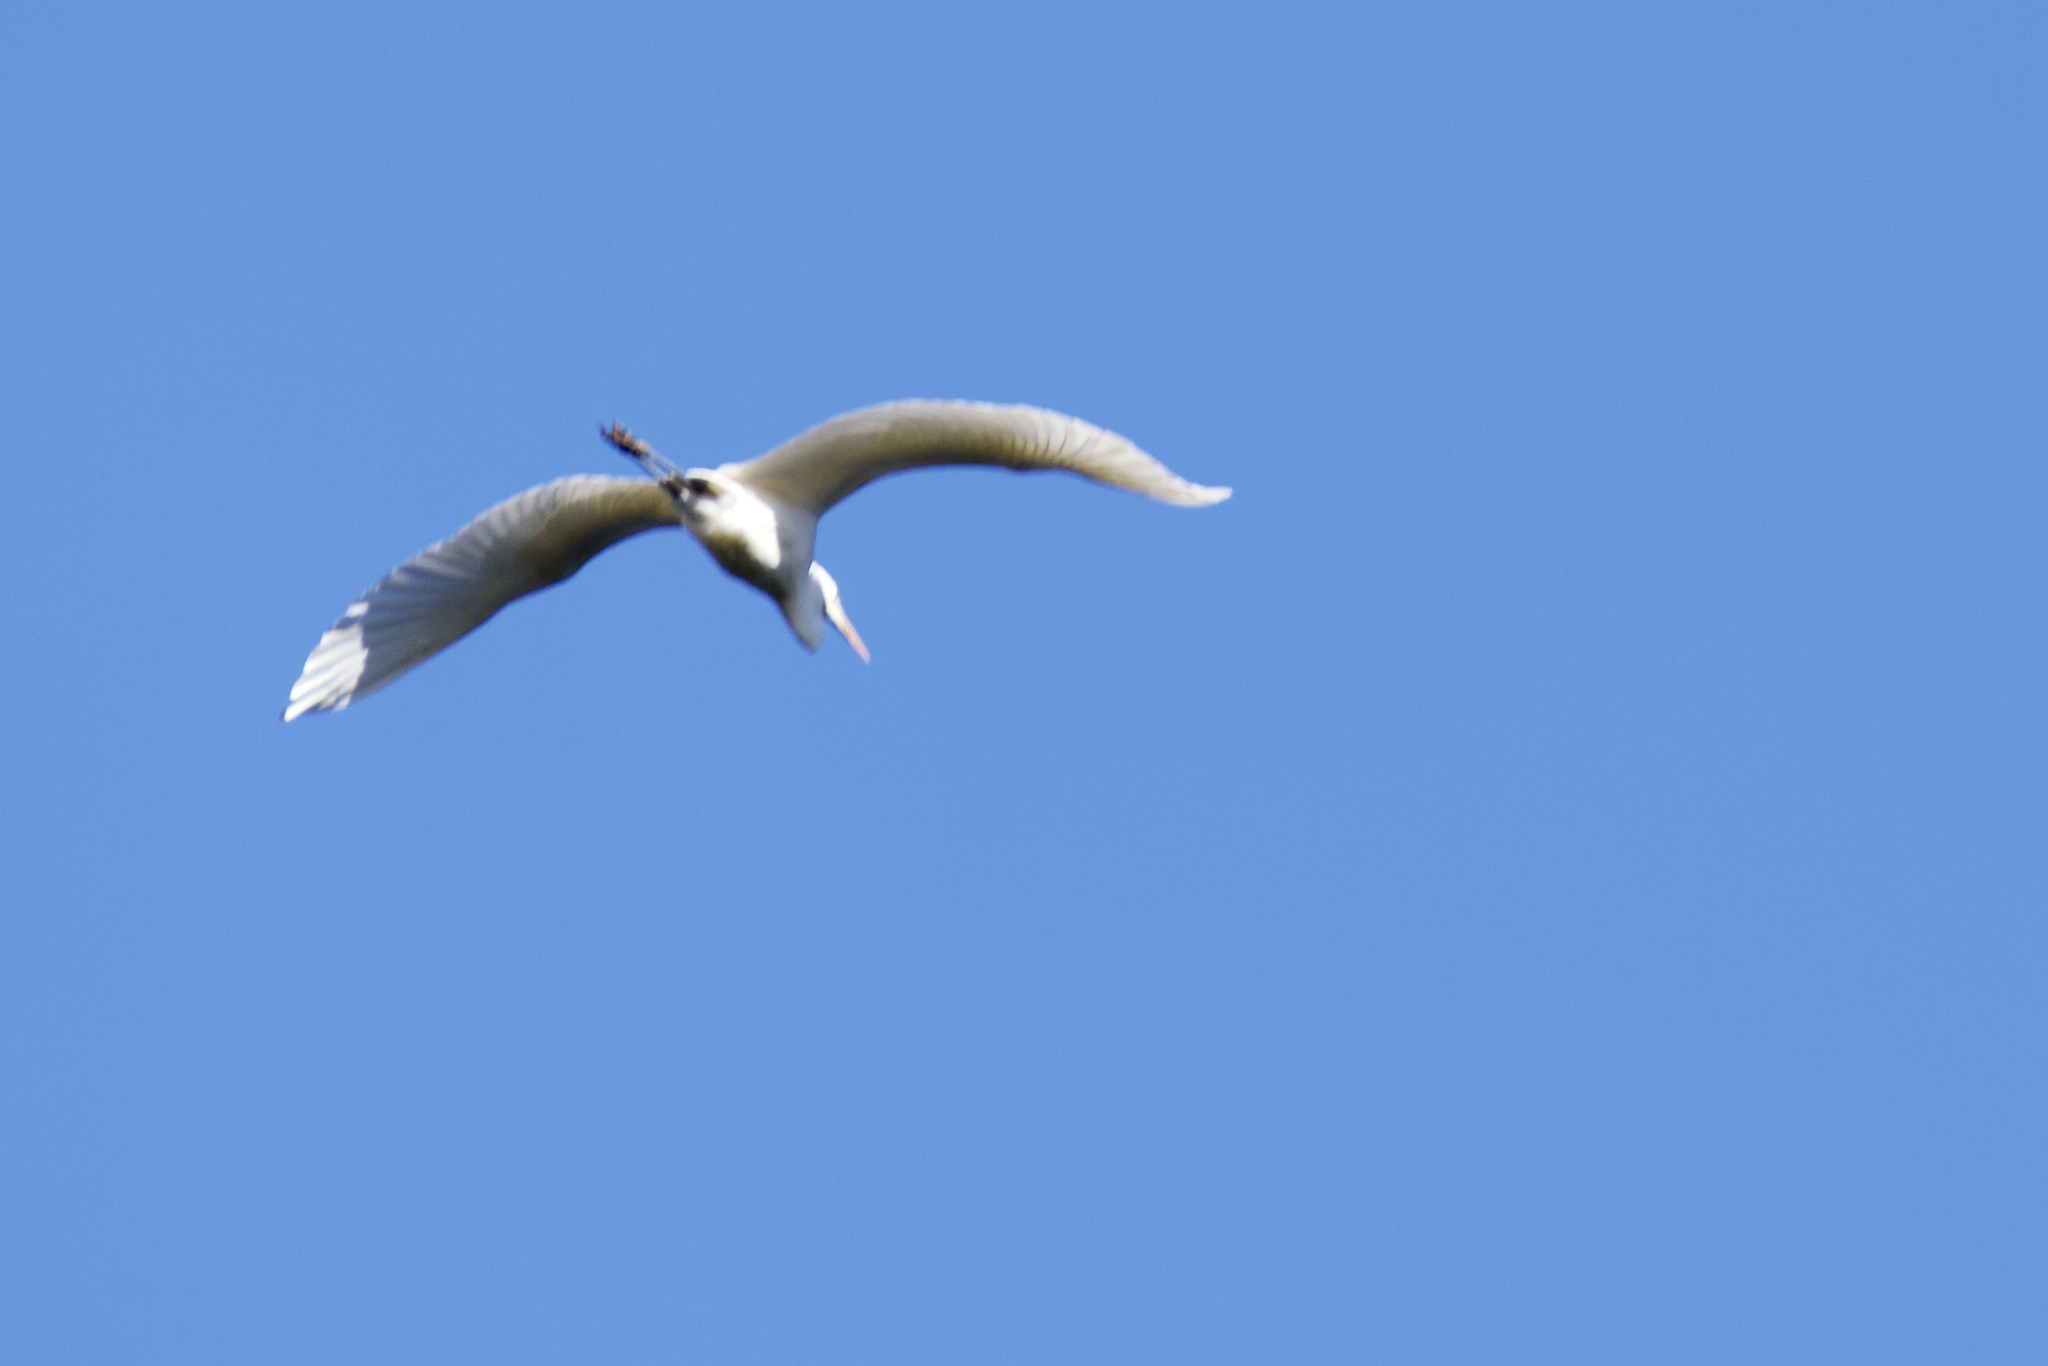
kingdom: Animalia
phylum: Chordata
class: Aves
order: Pelecaniformes
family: Ardeidae
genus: Ardea
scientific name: Ardea alba
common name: Great egret
